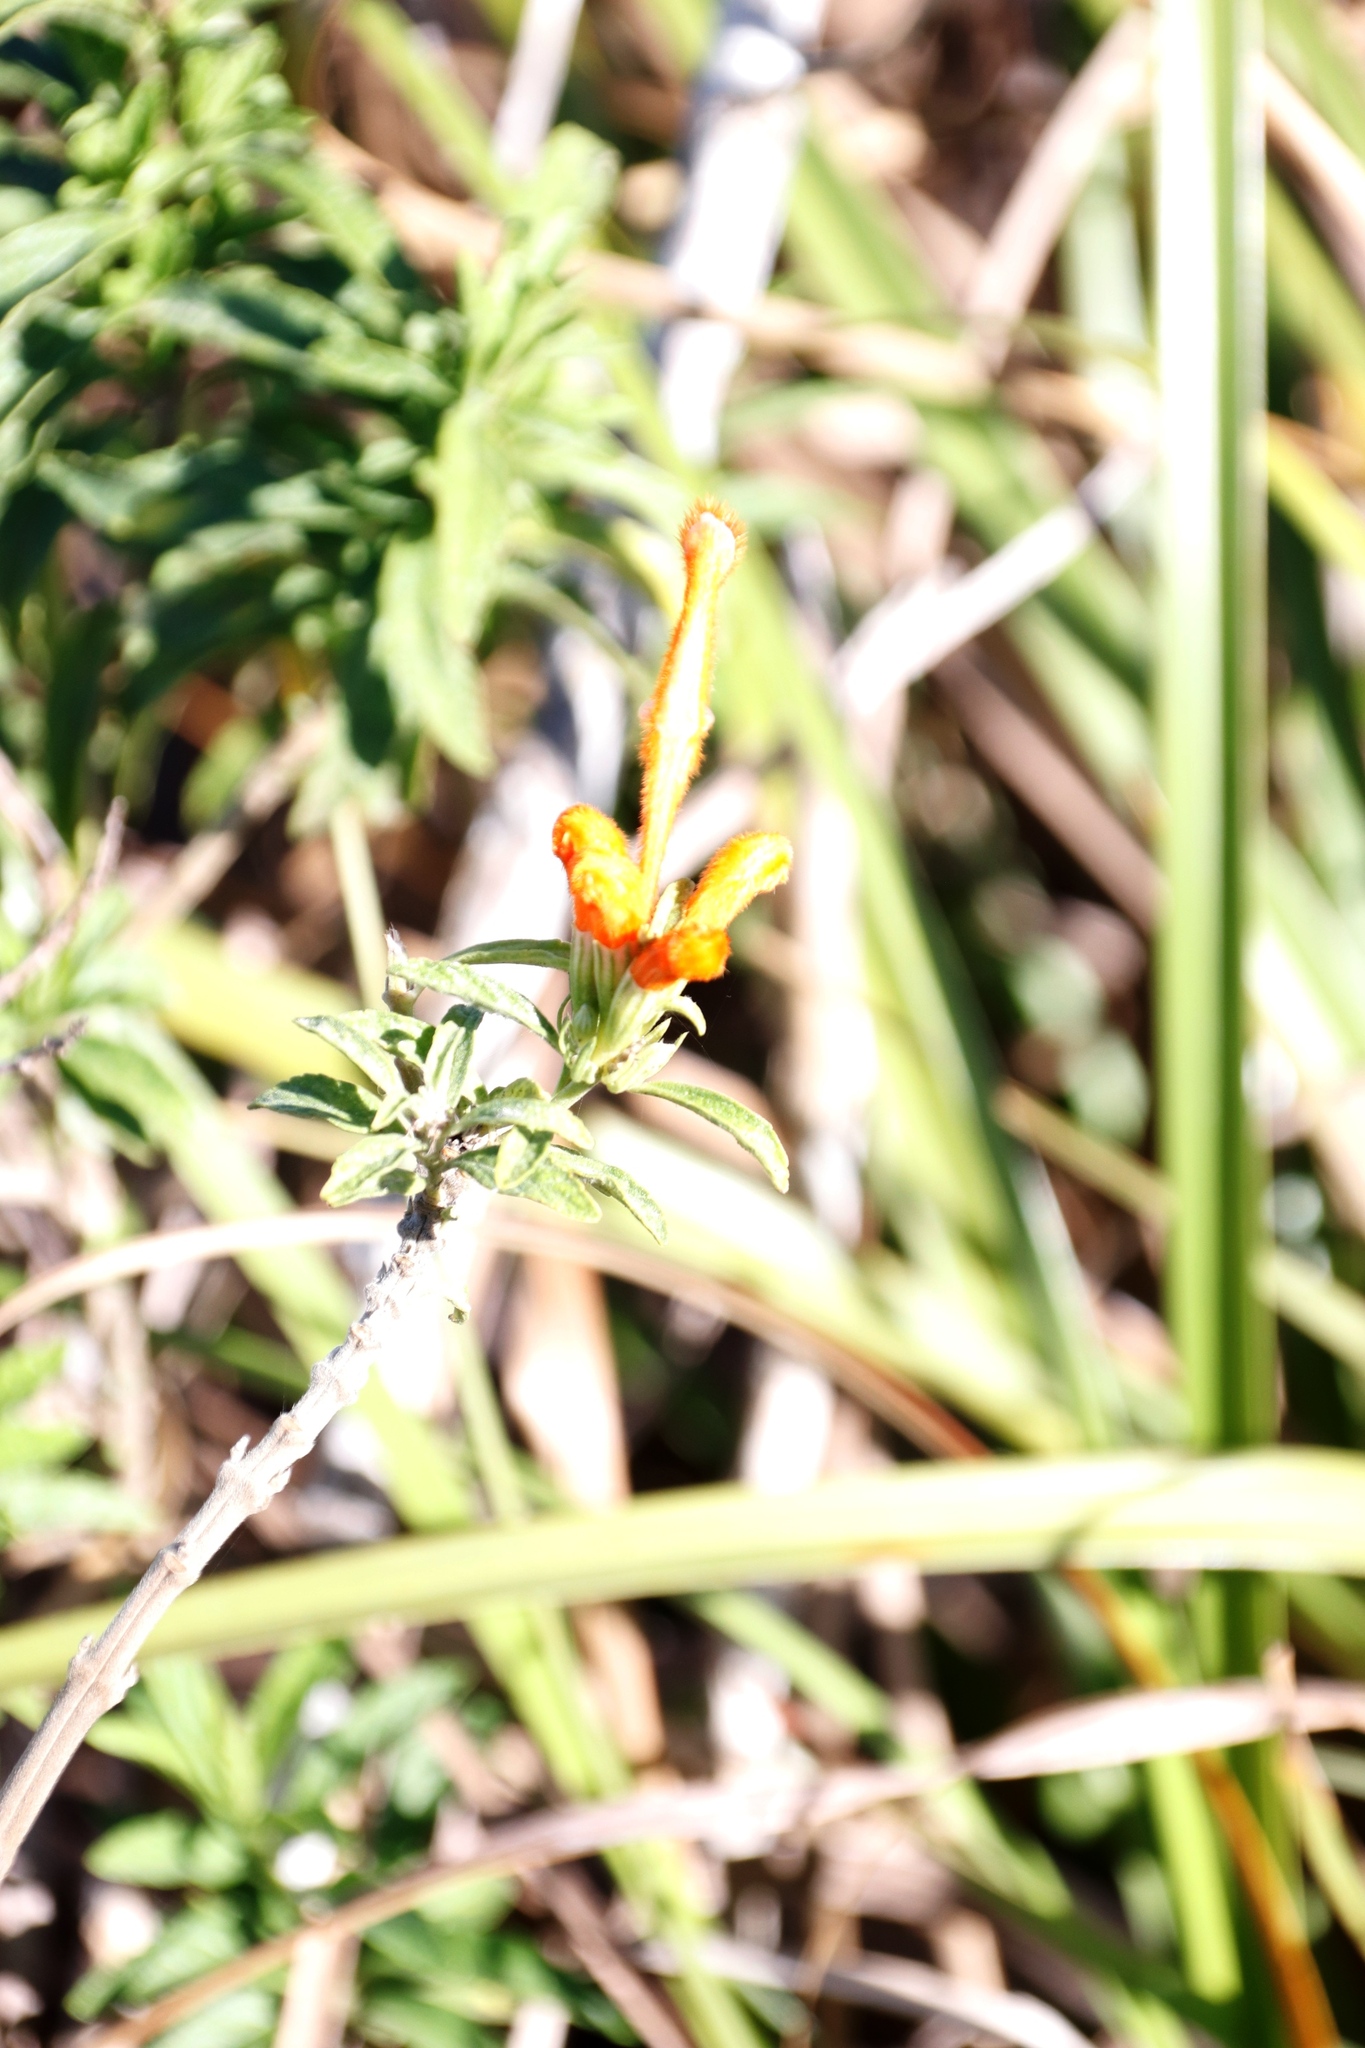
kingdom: Plantae
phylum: Tracheophyta
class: Magnoliopsida
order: Lamiales
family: Lamiaceae
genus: Leonotis
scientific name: Leonotis leonurus
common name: Lion's ear
